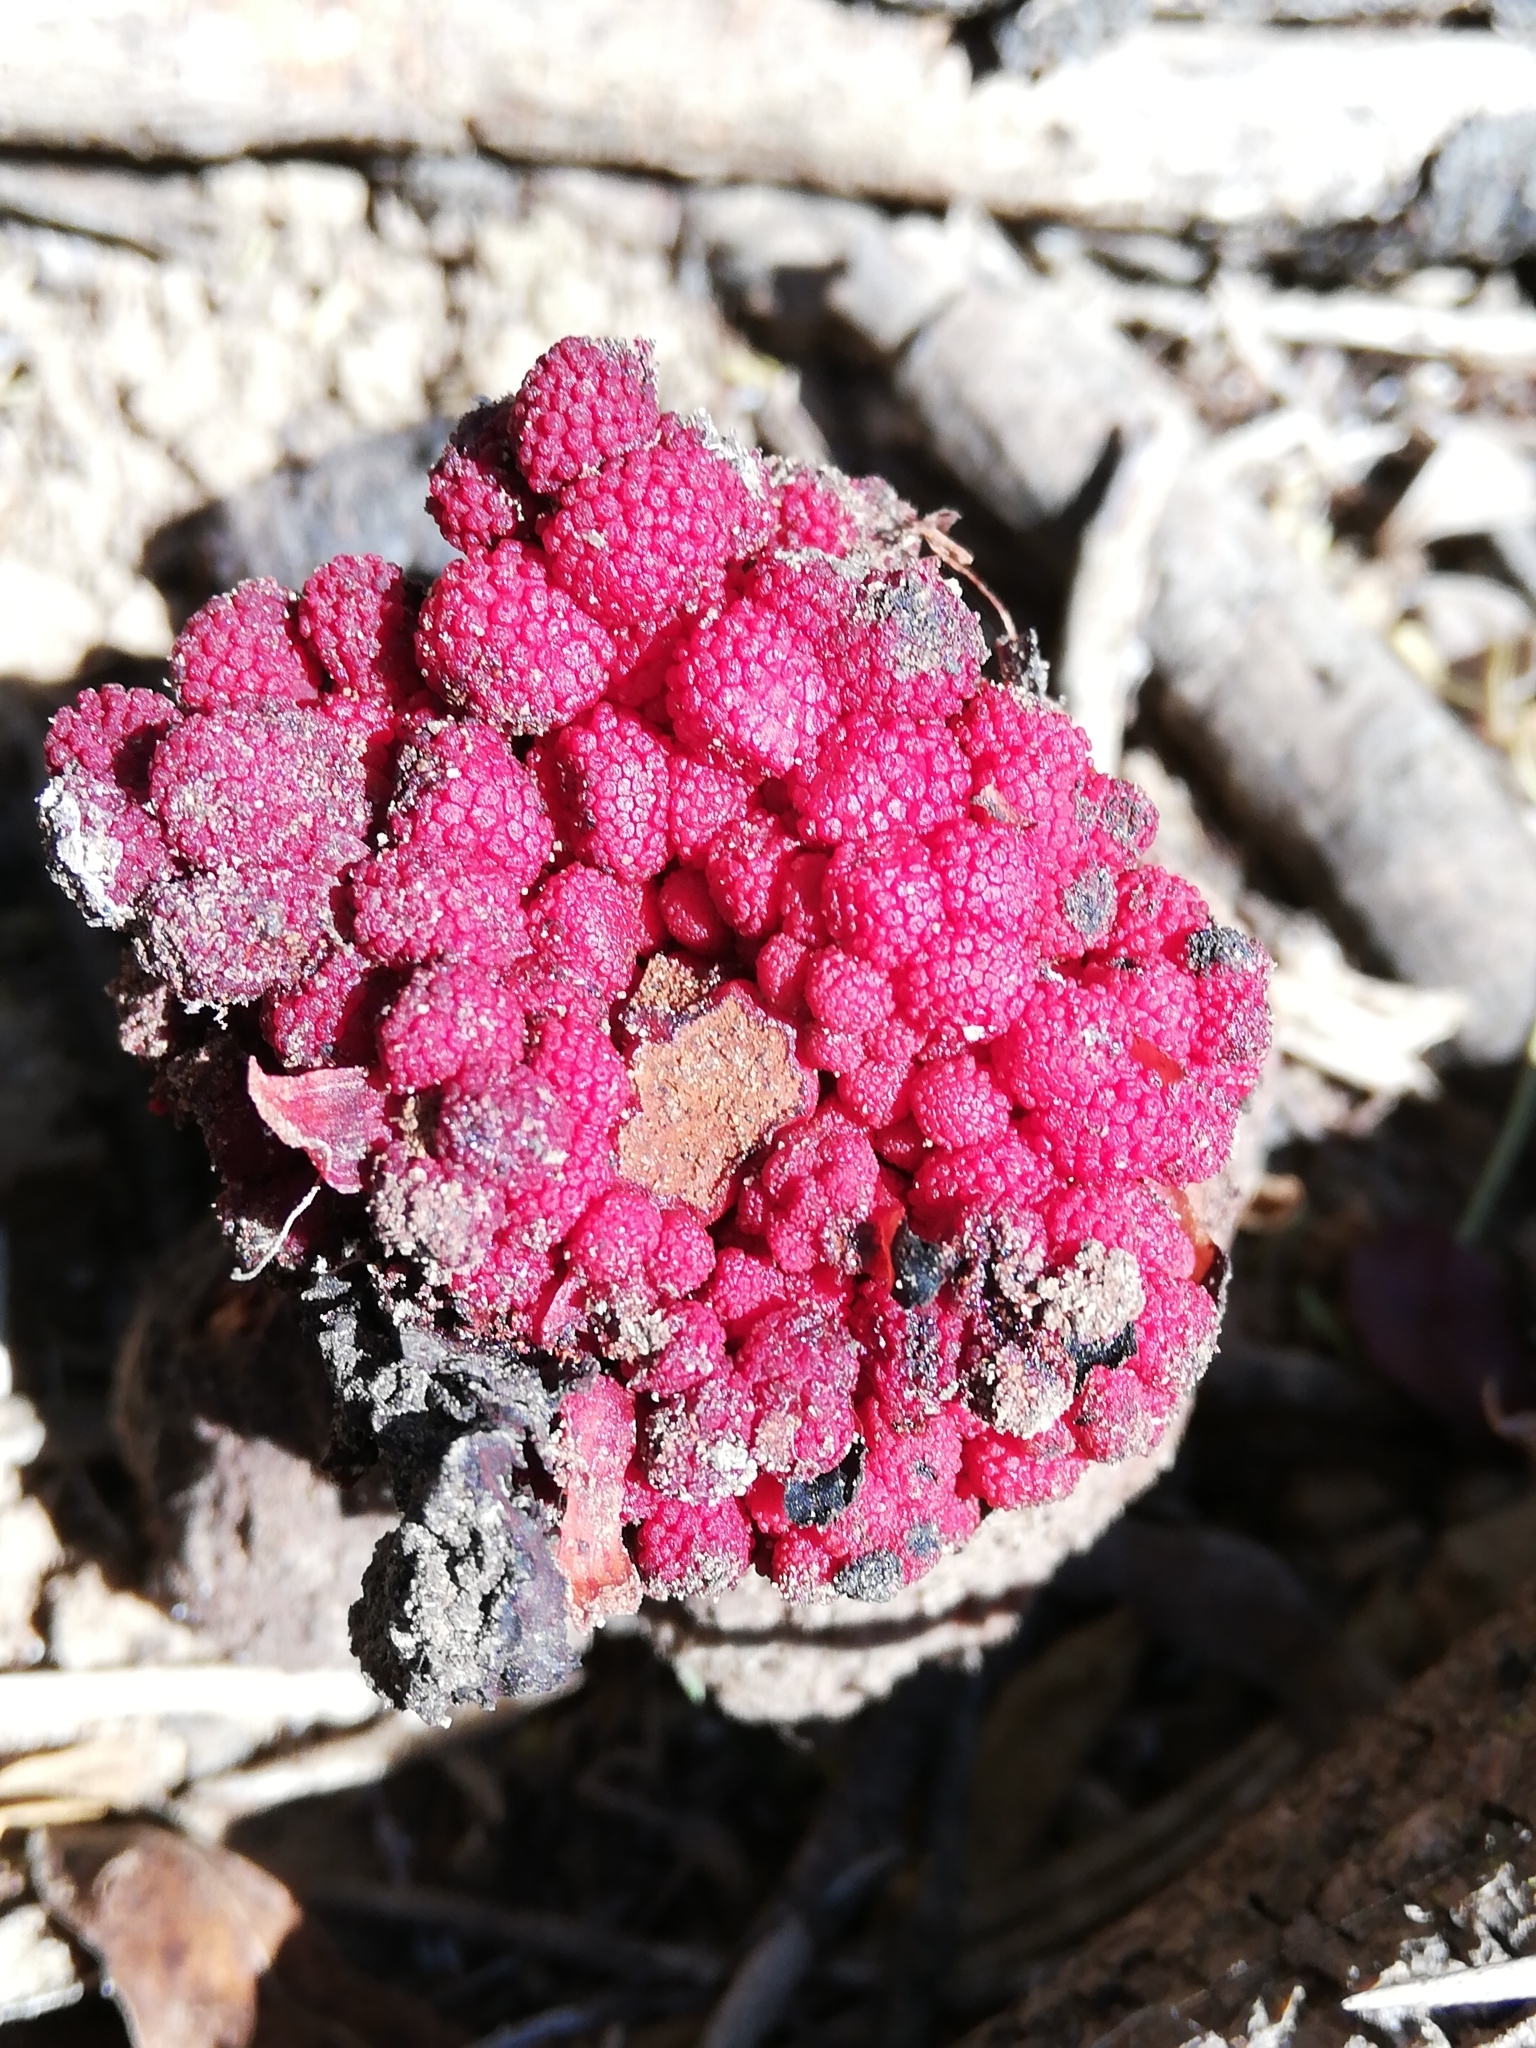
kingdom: Plantae
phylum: Tracheophyta
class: Magnoliopsida
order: Santalales
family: Balanophoraceae
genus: Sarcophyte
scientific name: Sarcophyte sanguinea
